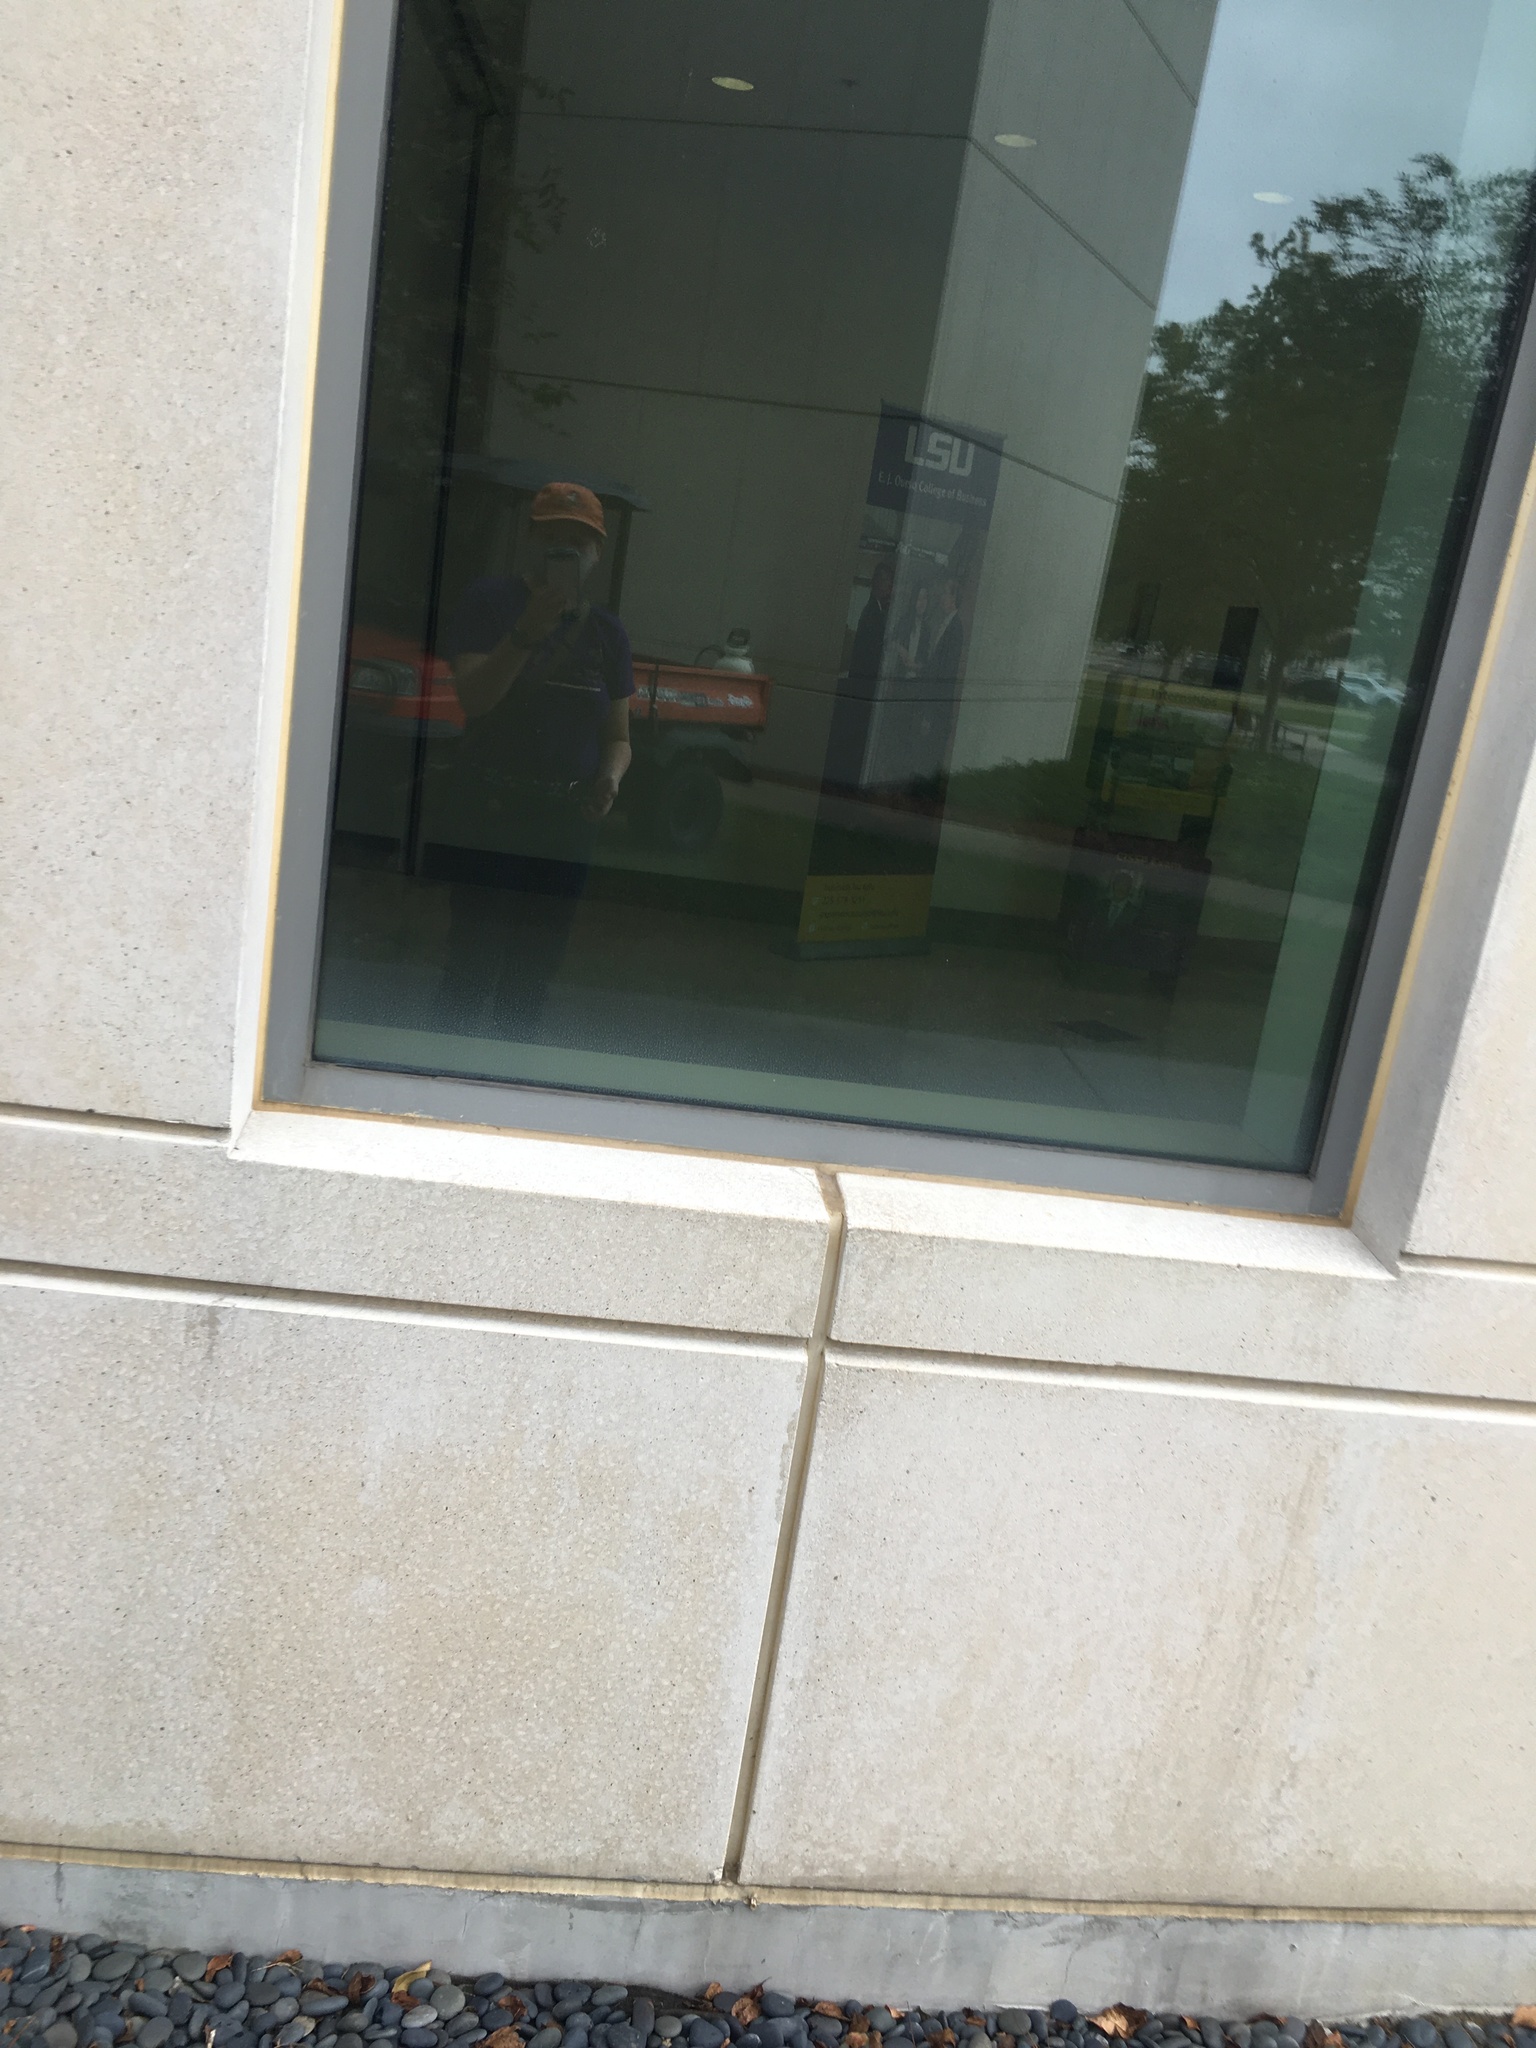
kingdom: Animalia
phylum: Chordata
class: Aves
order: Passeriformes
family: Parulidae
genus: Leiothlypis
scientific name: Leiothlypis celata
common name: Orange-crowned warbler
